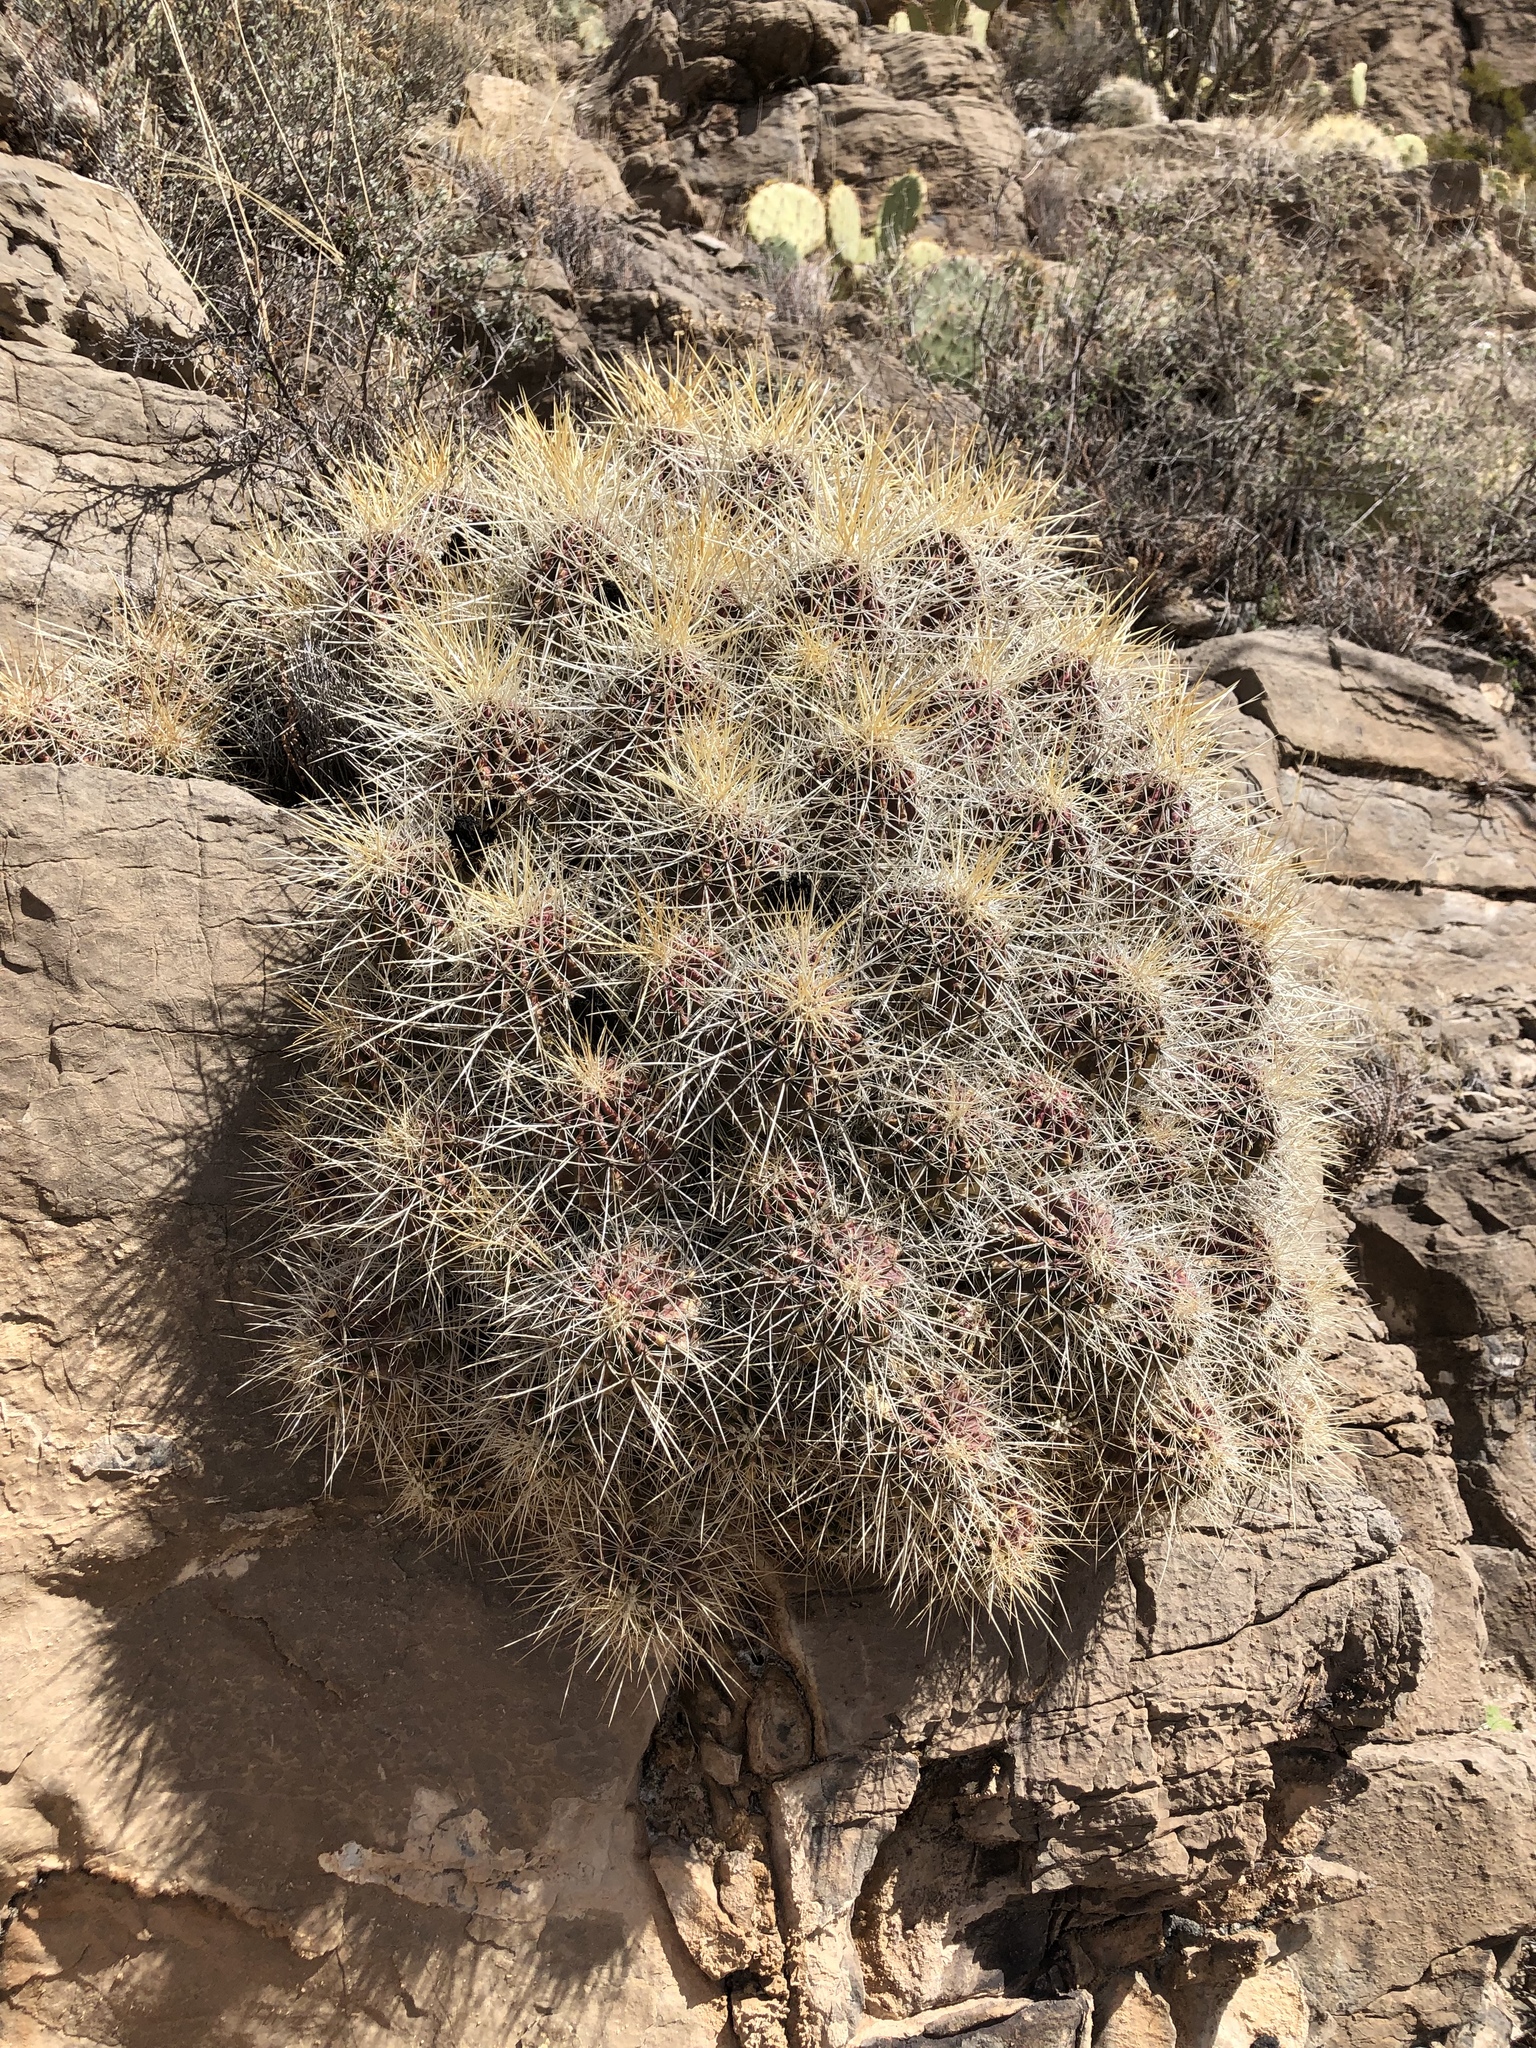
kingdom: Plantae
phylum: Tracheophyta
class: Magnoliopsida
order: Caryophyllales
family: Cactaceae
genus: Echinocereus
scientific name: Echinocereus stramineus
